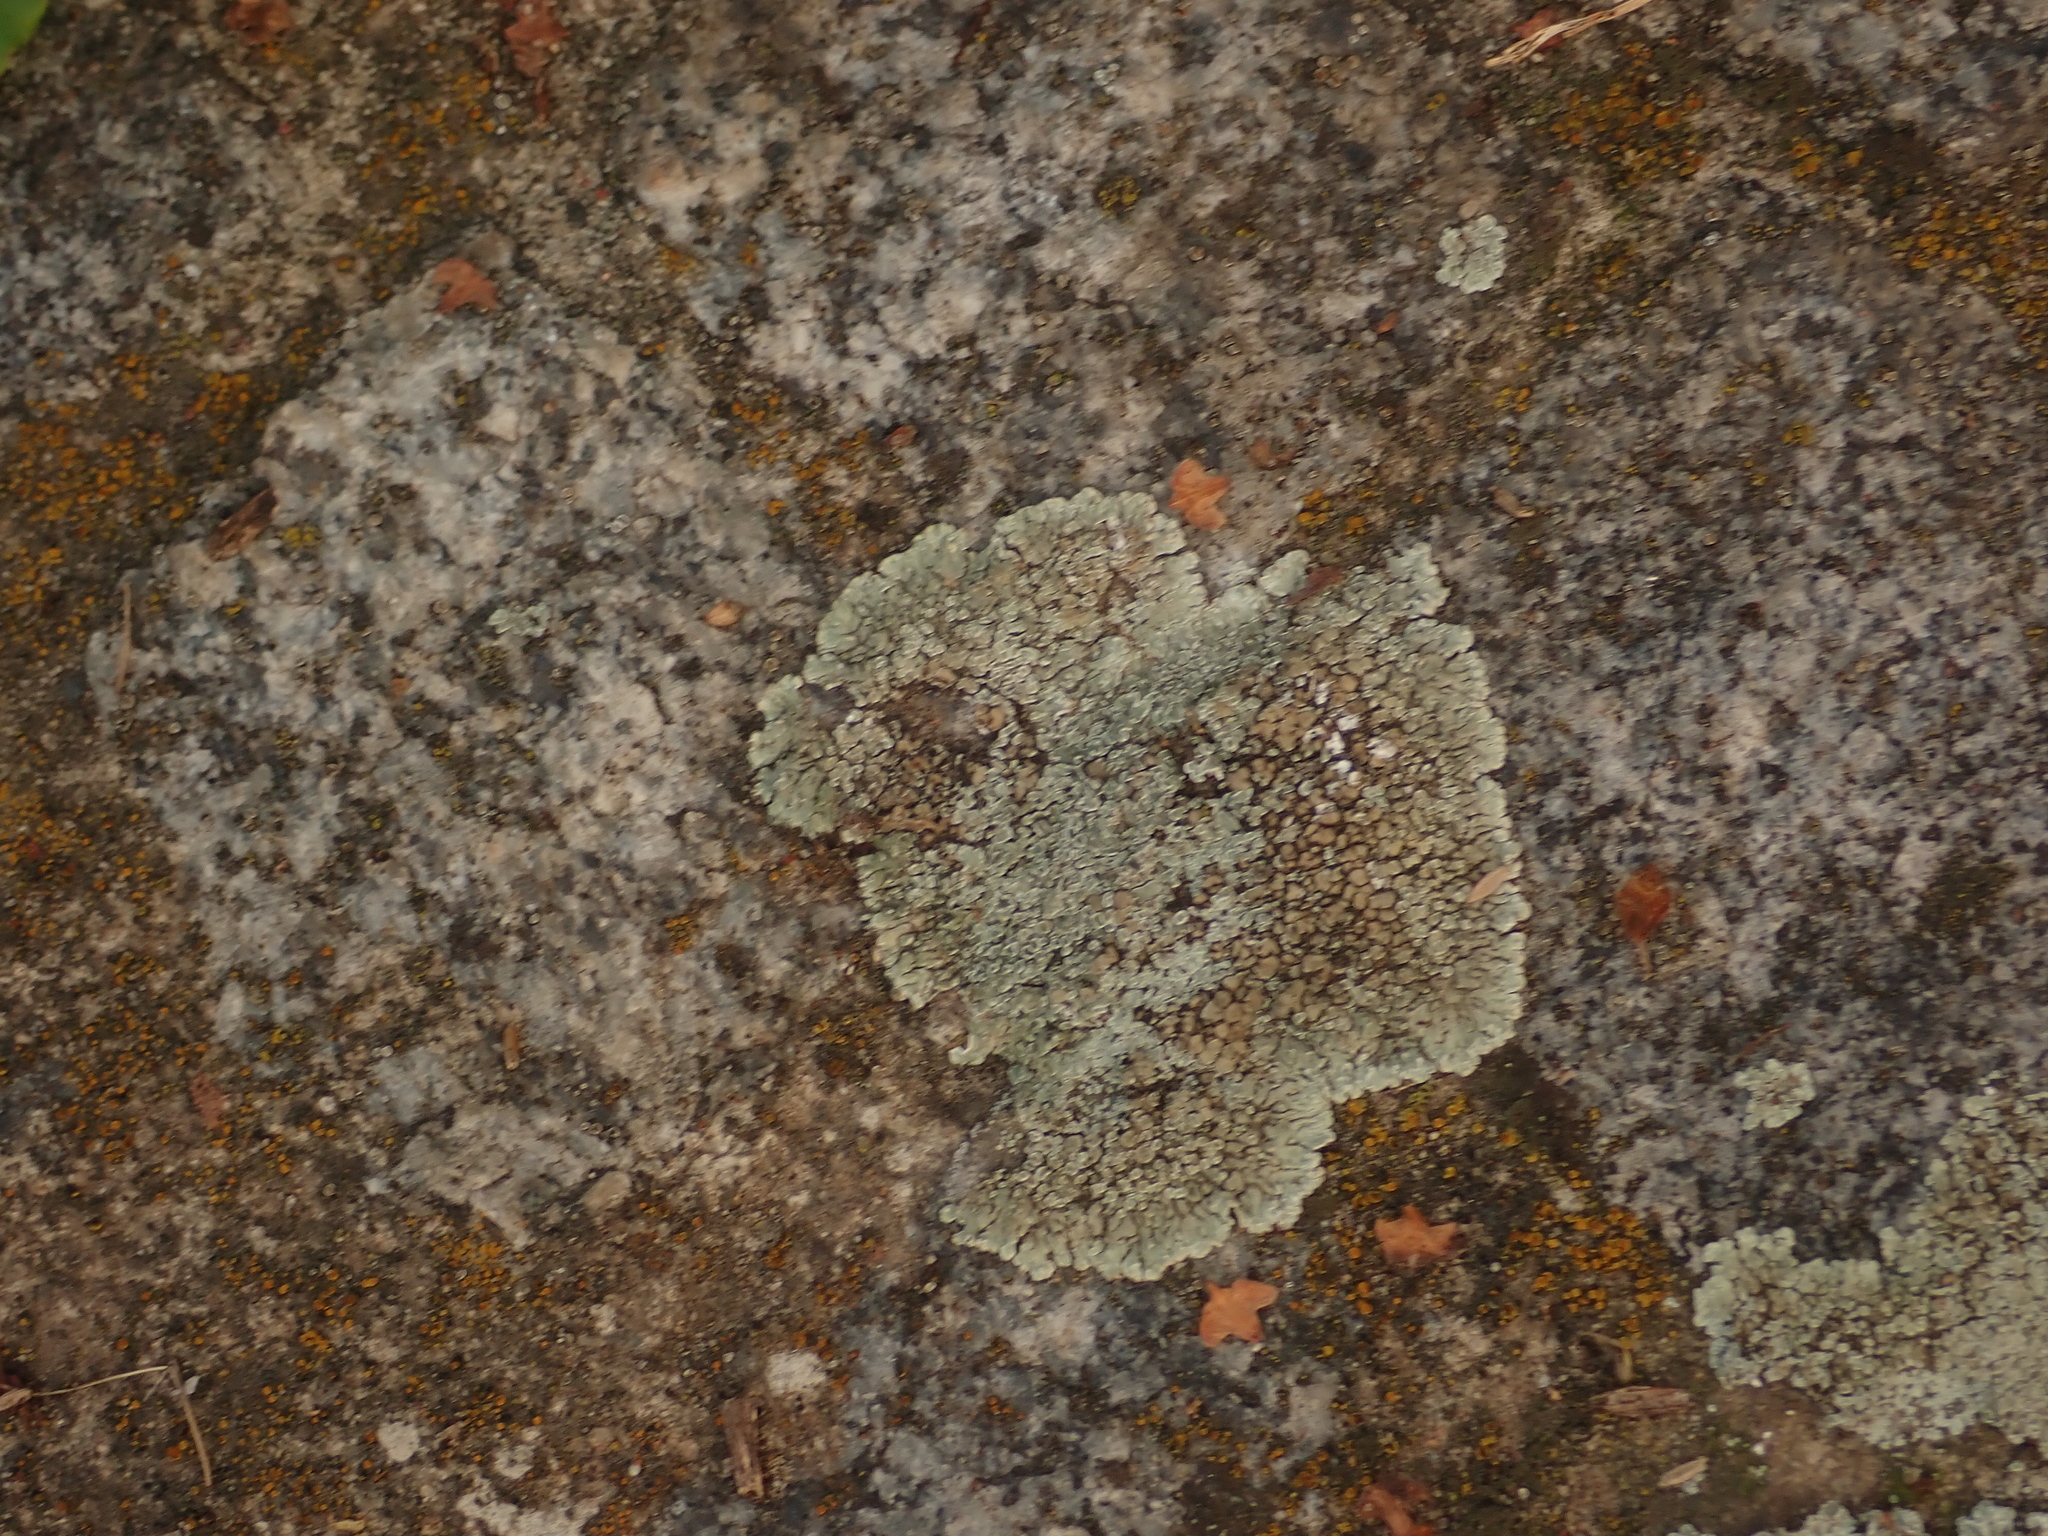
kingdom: Fungi
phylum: Ascomycota
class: Lecanoromycetes
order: Lecanorales
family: Lecanoraceae
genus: Protoparmeliopsis
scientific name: Protoparmeliopsis muralis
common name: Stonewall rim lichen
